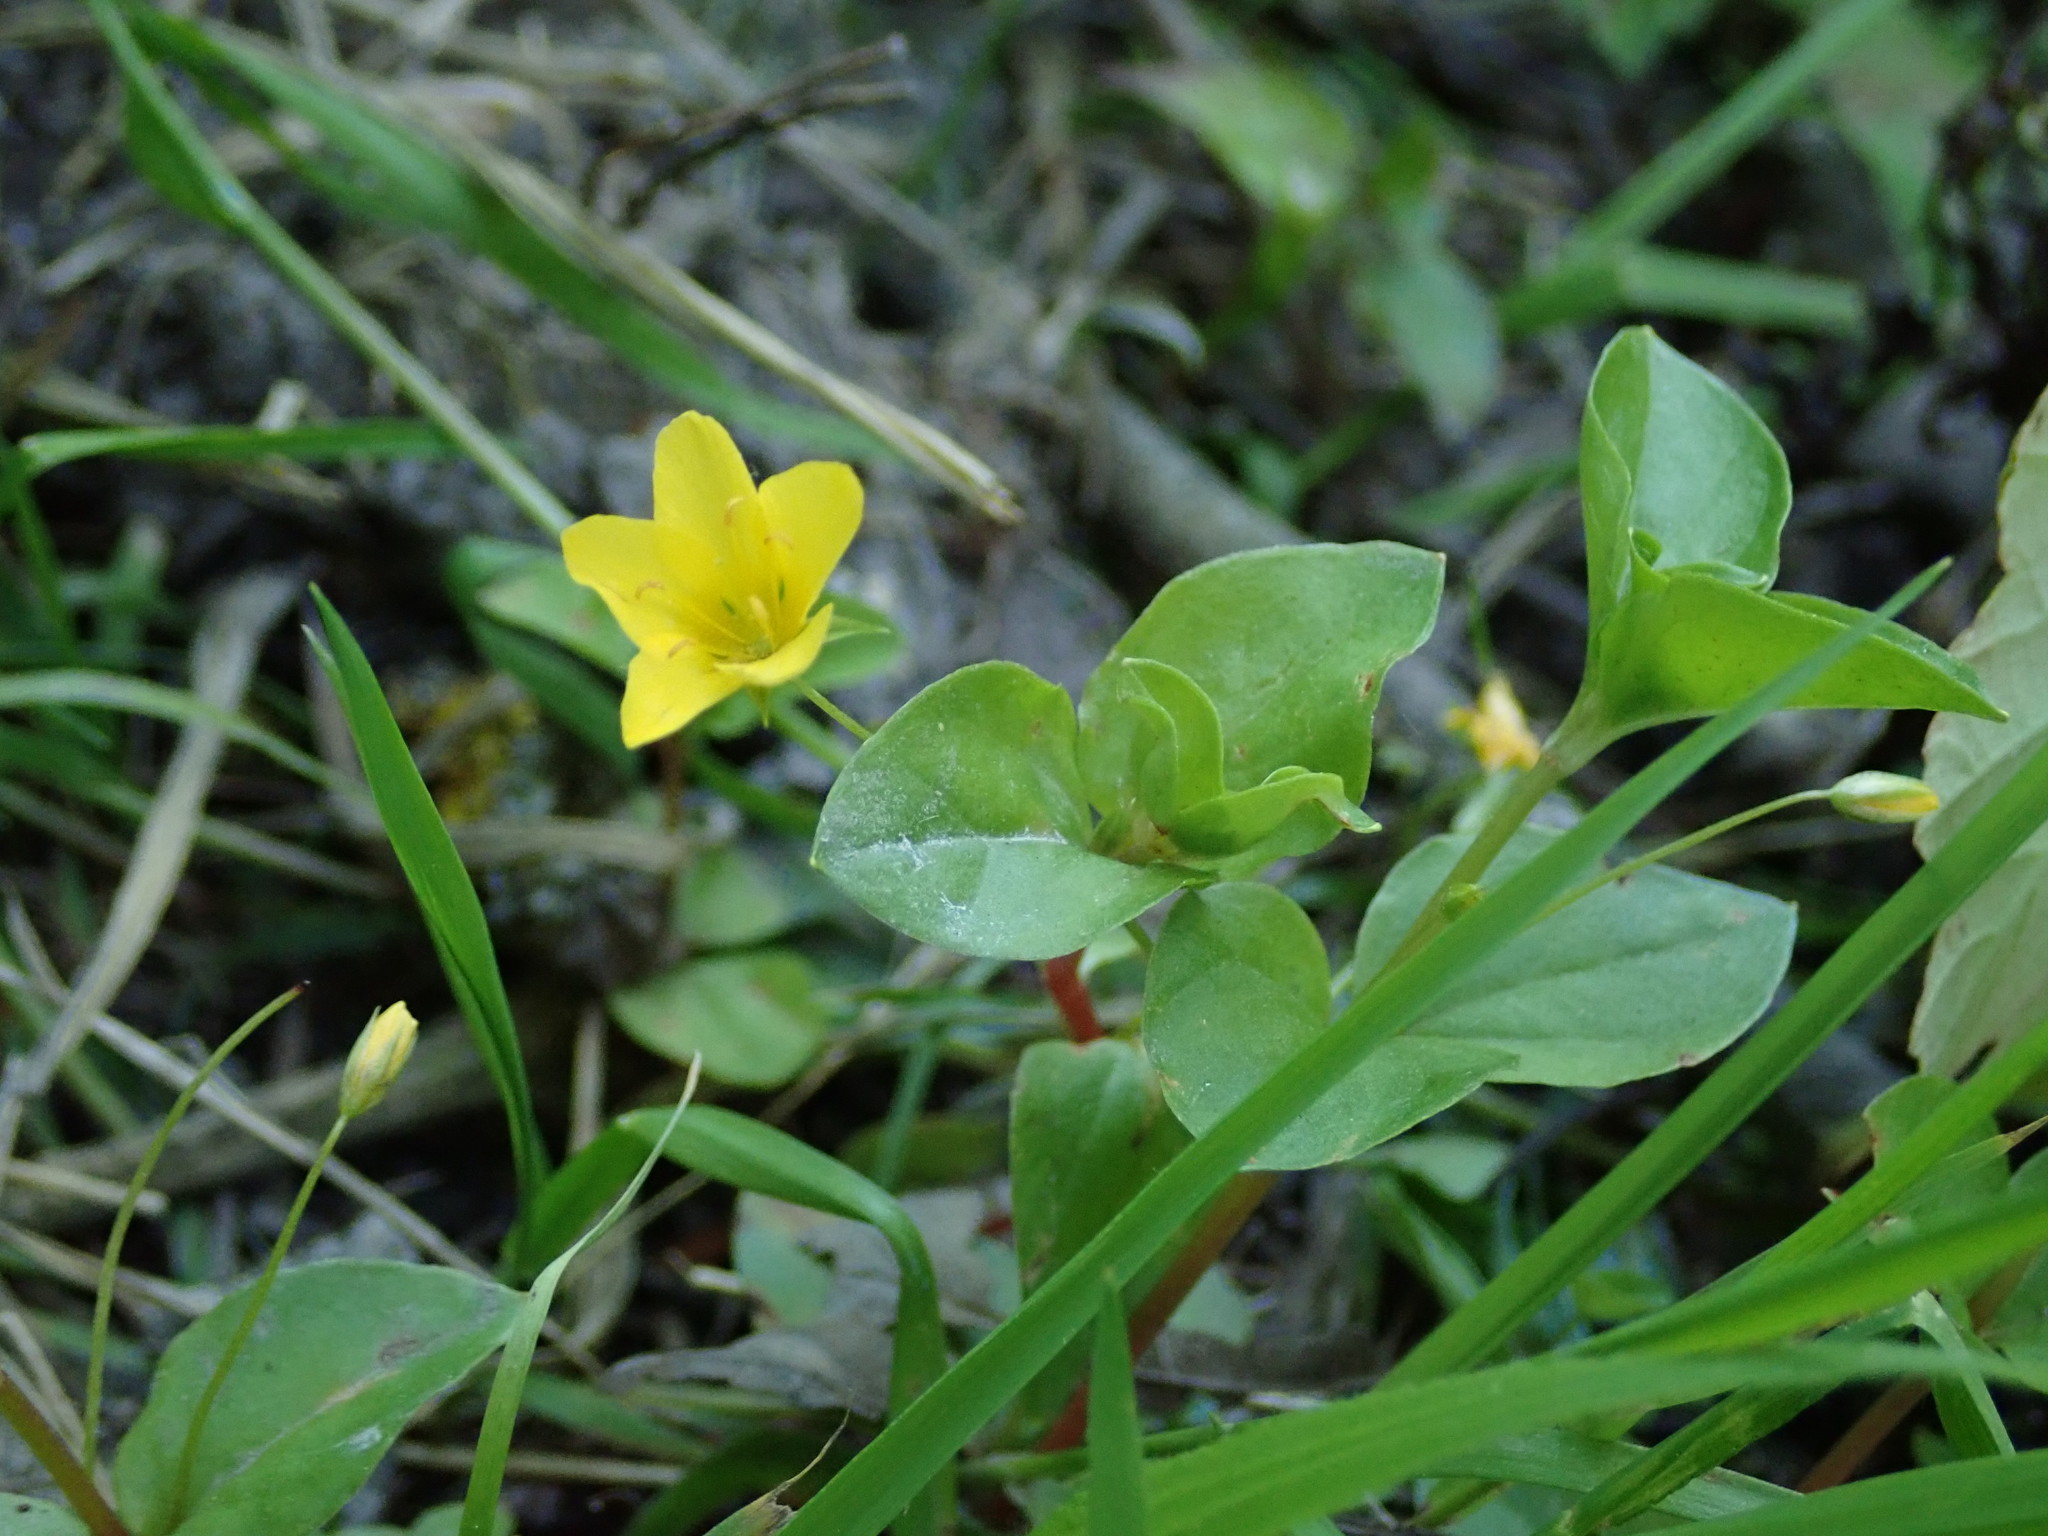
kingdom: Plantae
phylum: Tracheophyta
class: Magnoliopsida
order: Ericales
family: Primulaceae
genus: Lysimachia
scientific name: Lysimachia nemorum
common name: Yellow pimpernel
